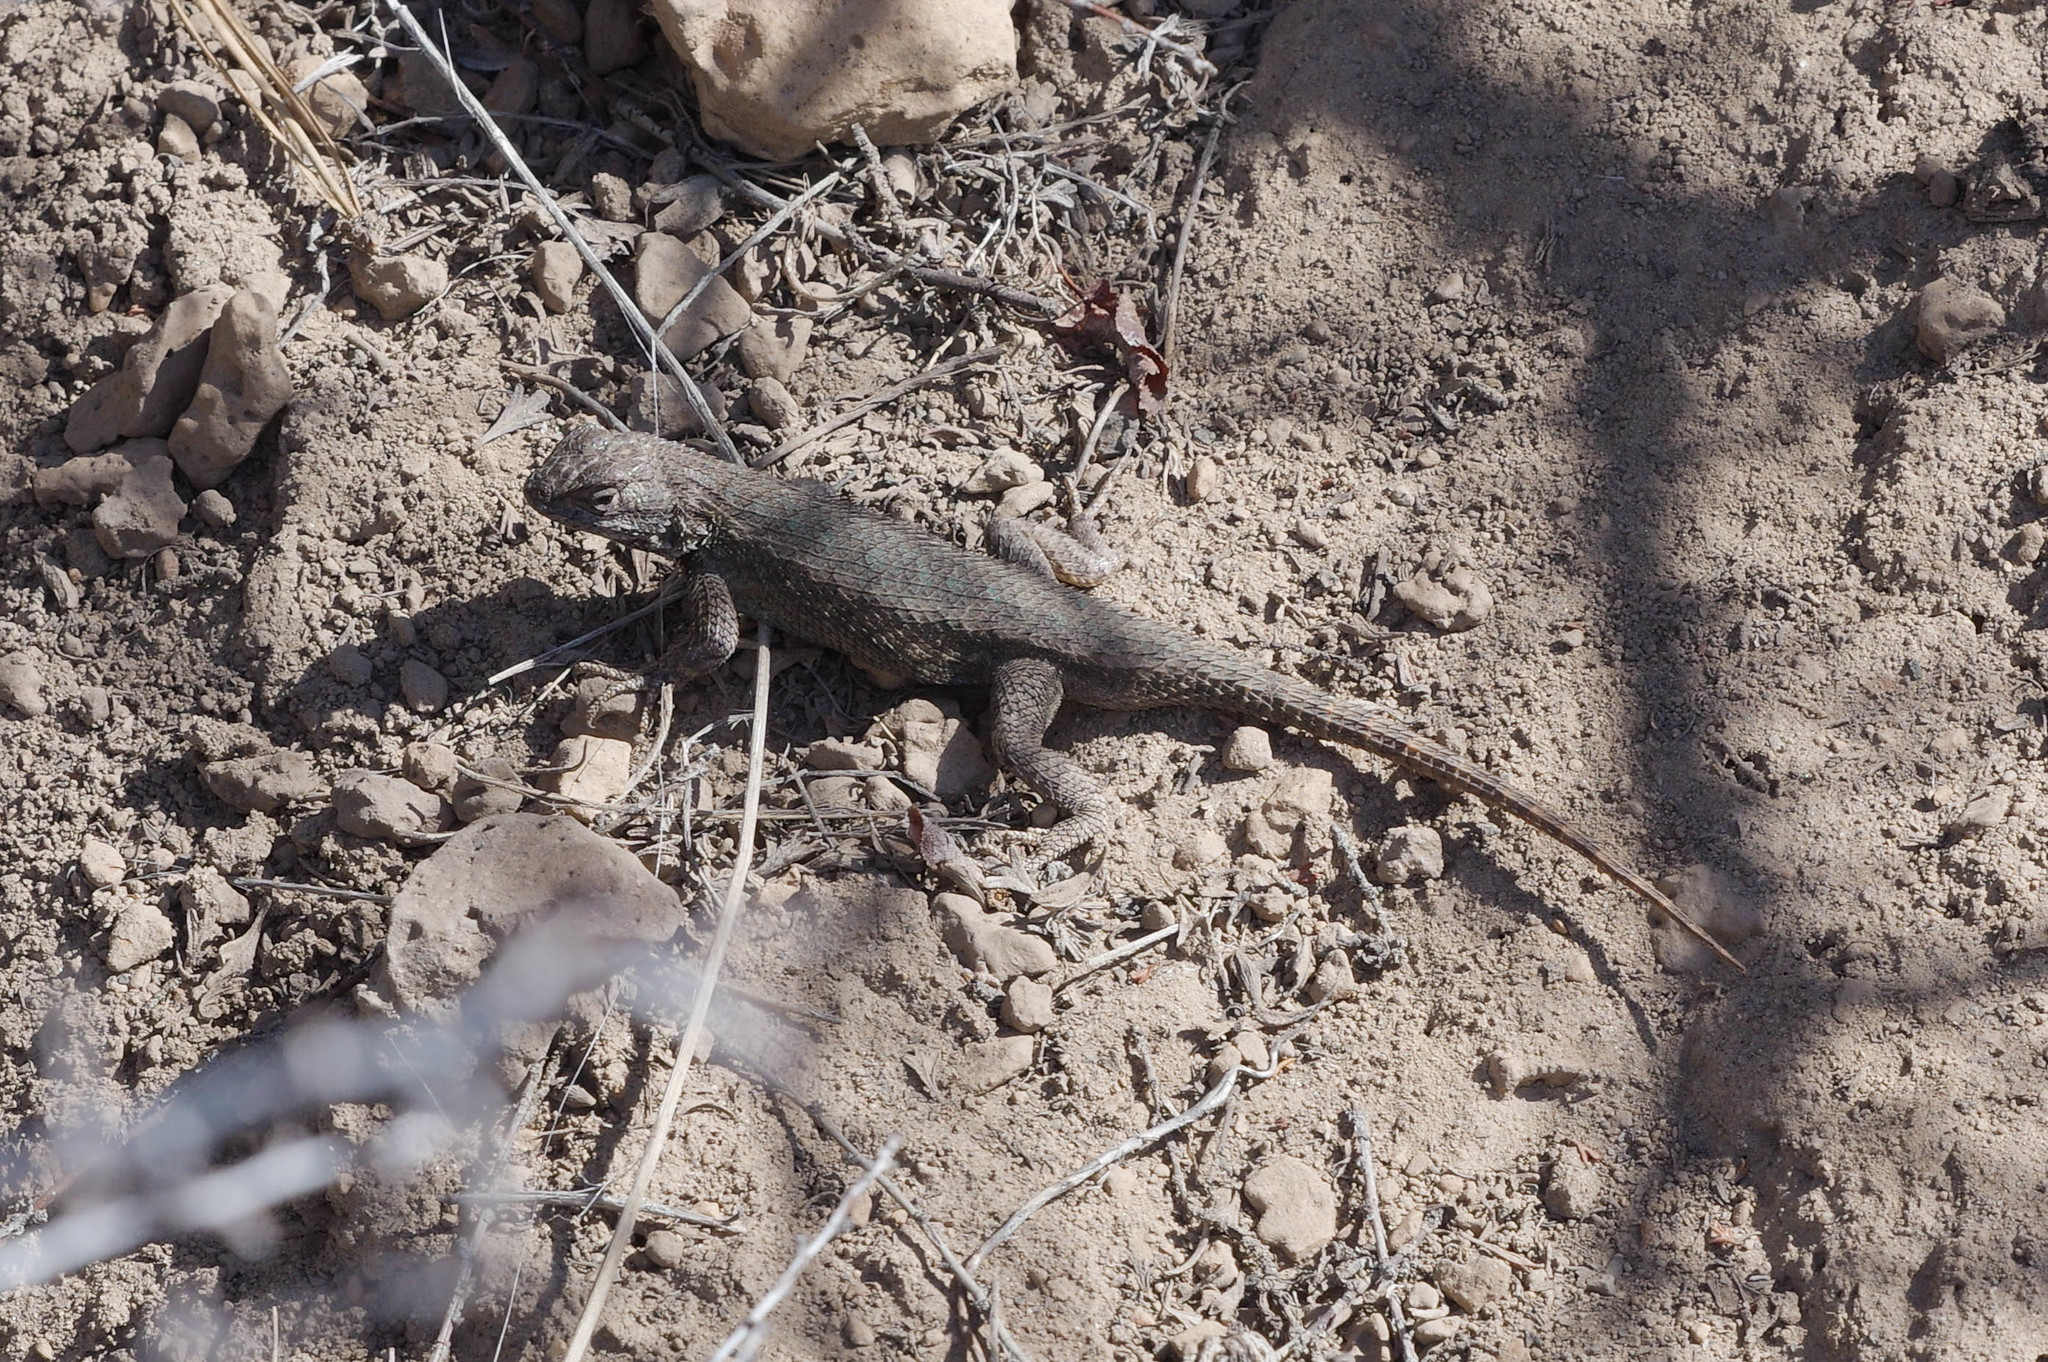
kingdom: Animalia
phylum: Chordata
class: Squamata
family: Phrynosomatidae
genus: Sceloporus
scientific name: Sceloporus occidentalis
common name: Western fence lizard
